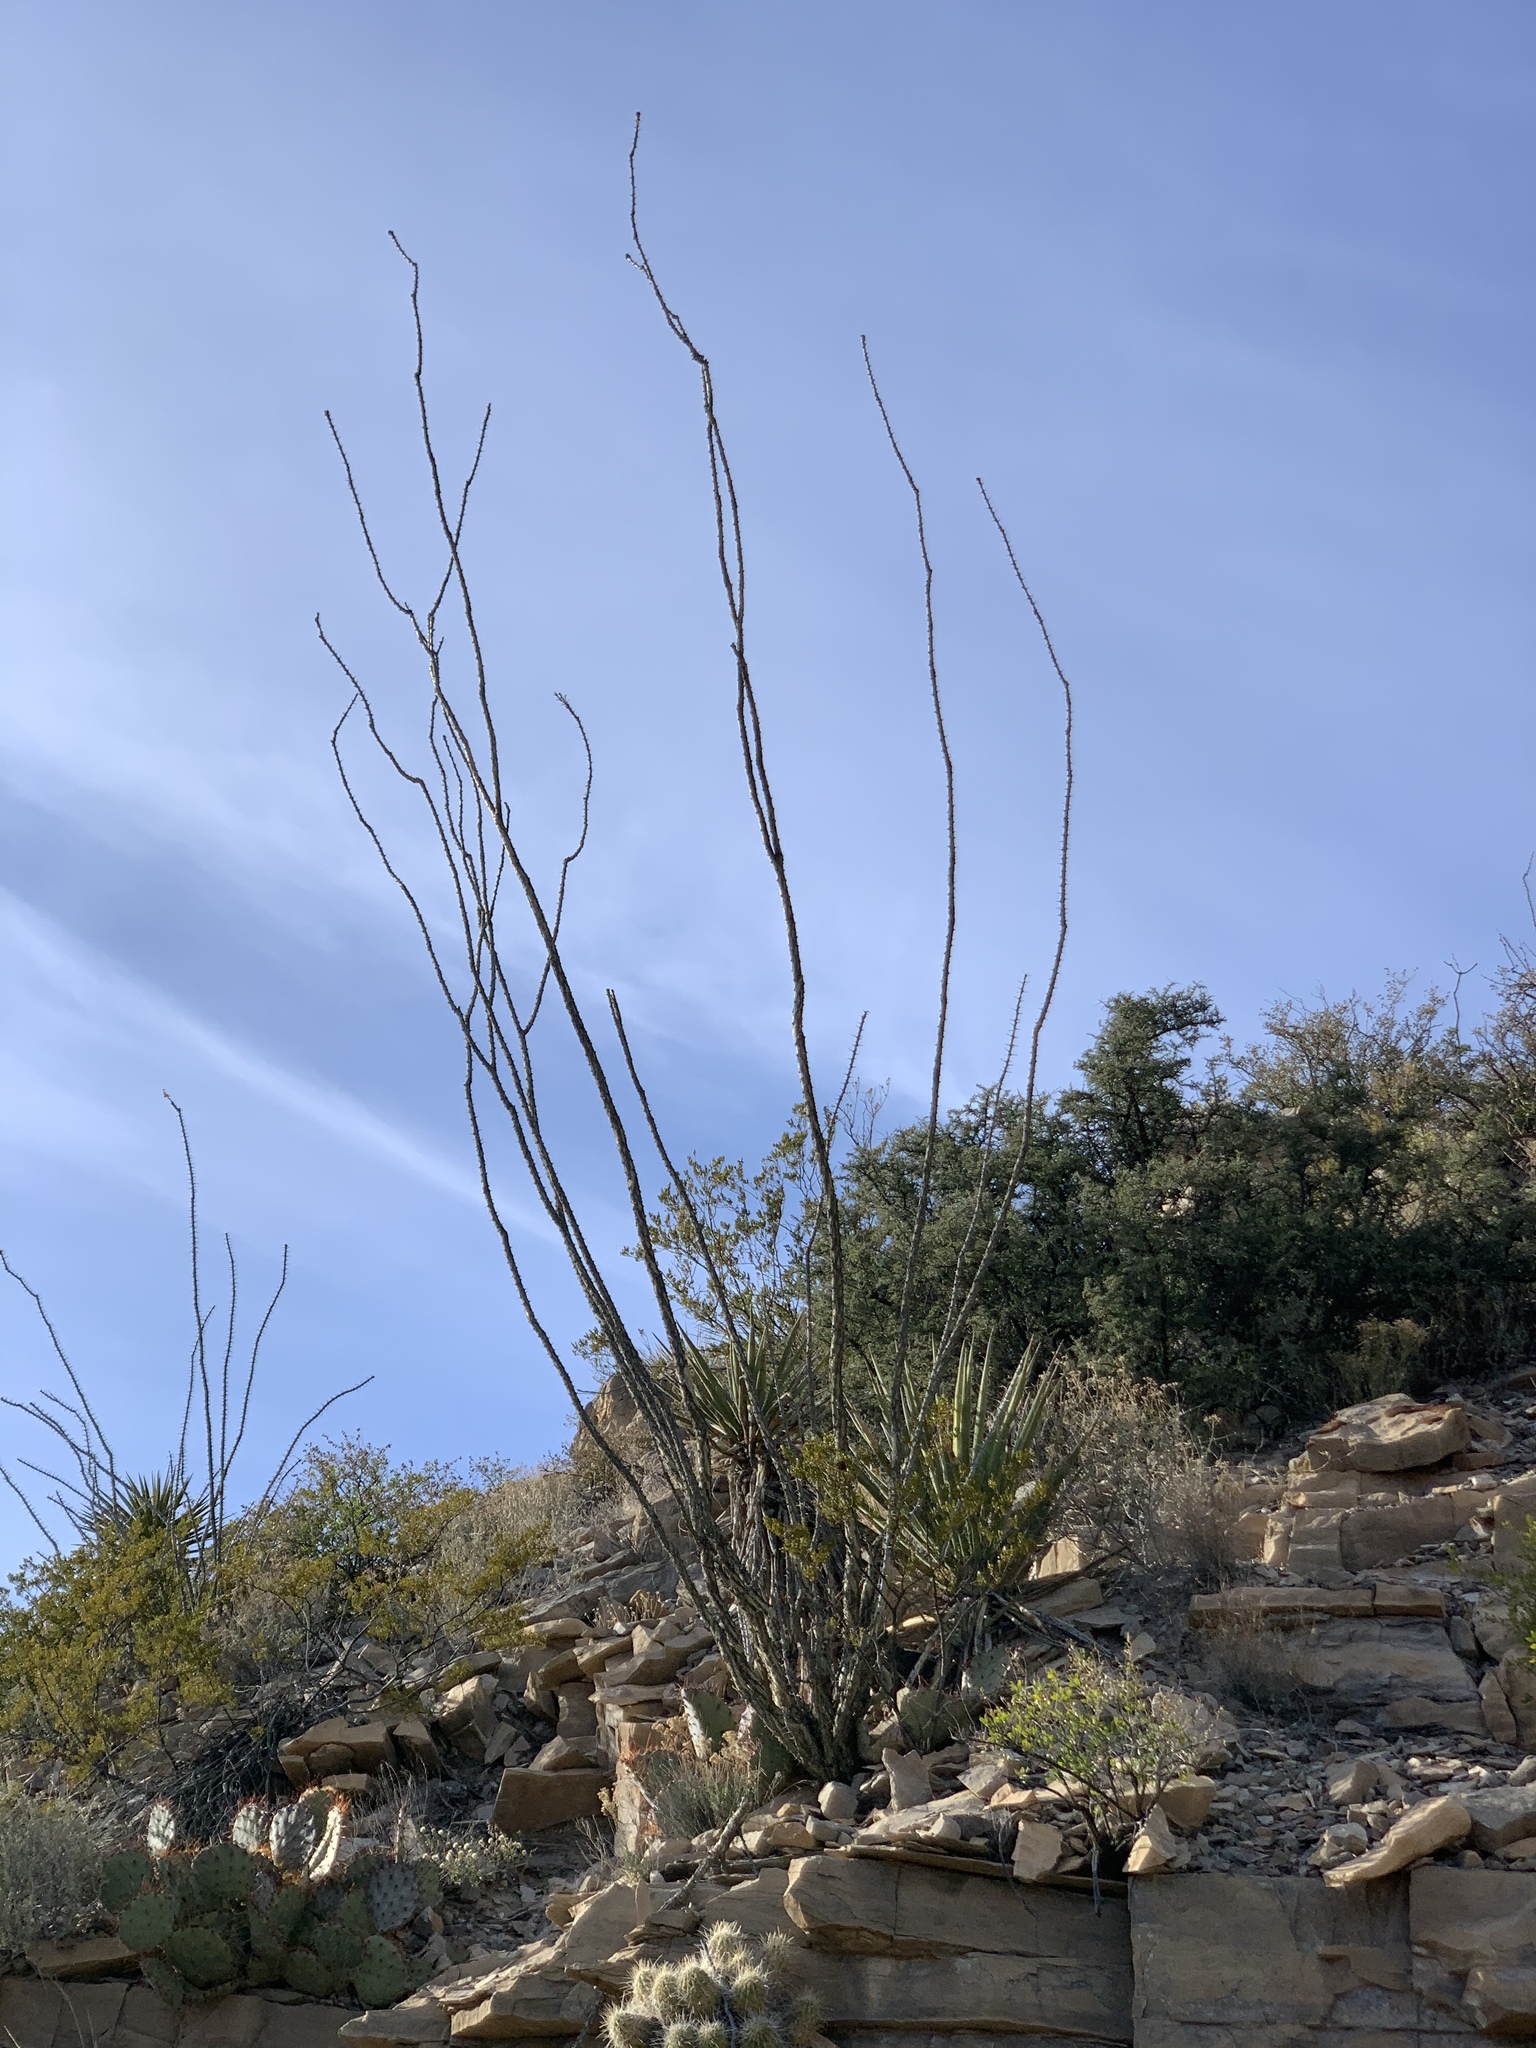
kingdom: Plantae
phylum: Tracheophyta
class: Magnoliopsida
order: Ericales
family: Fouquieriaceae
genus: Fouquieria
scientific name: Fouquieria splendens
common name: Vine-cactus
